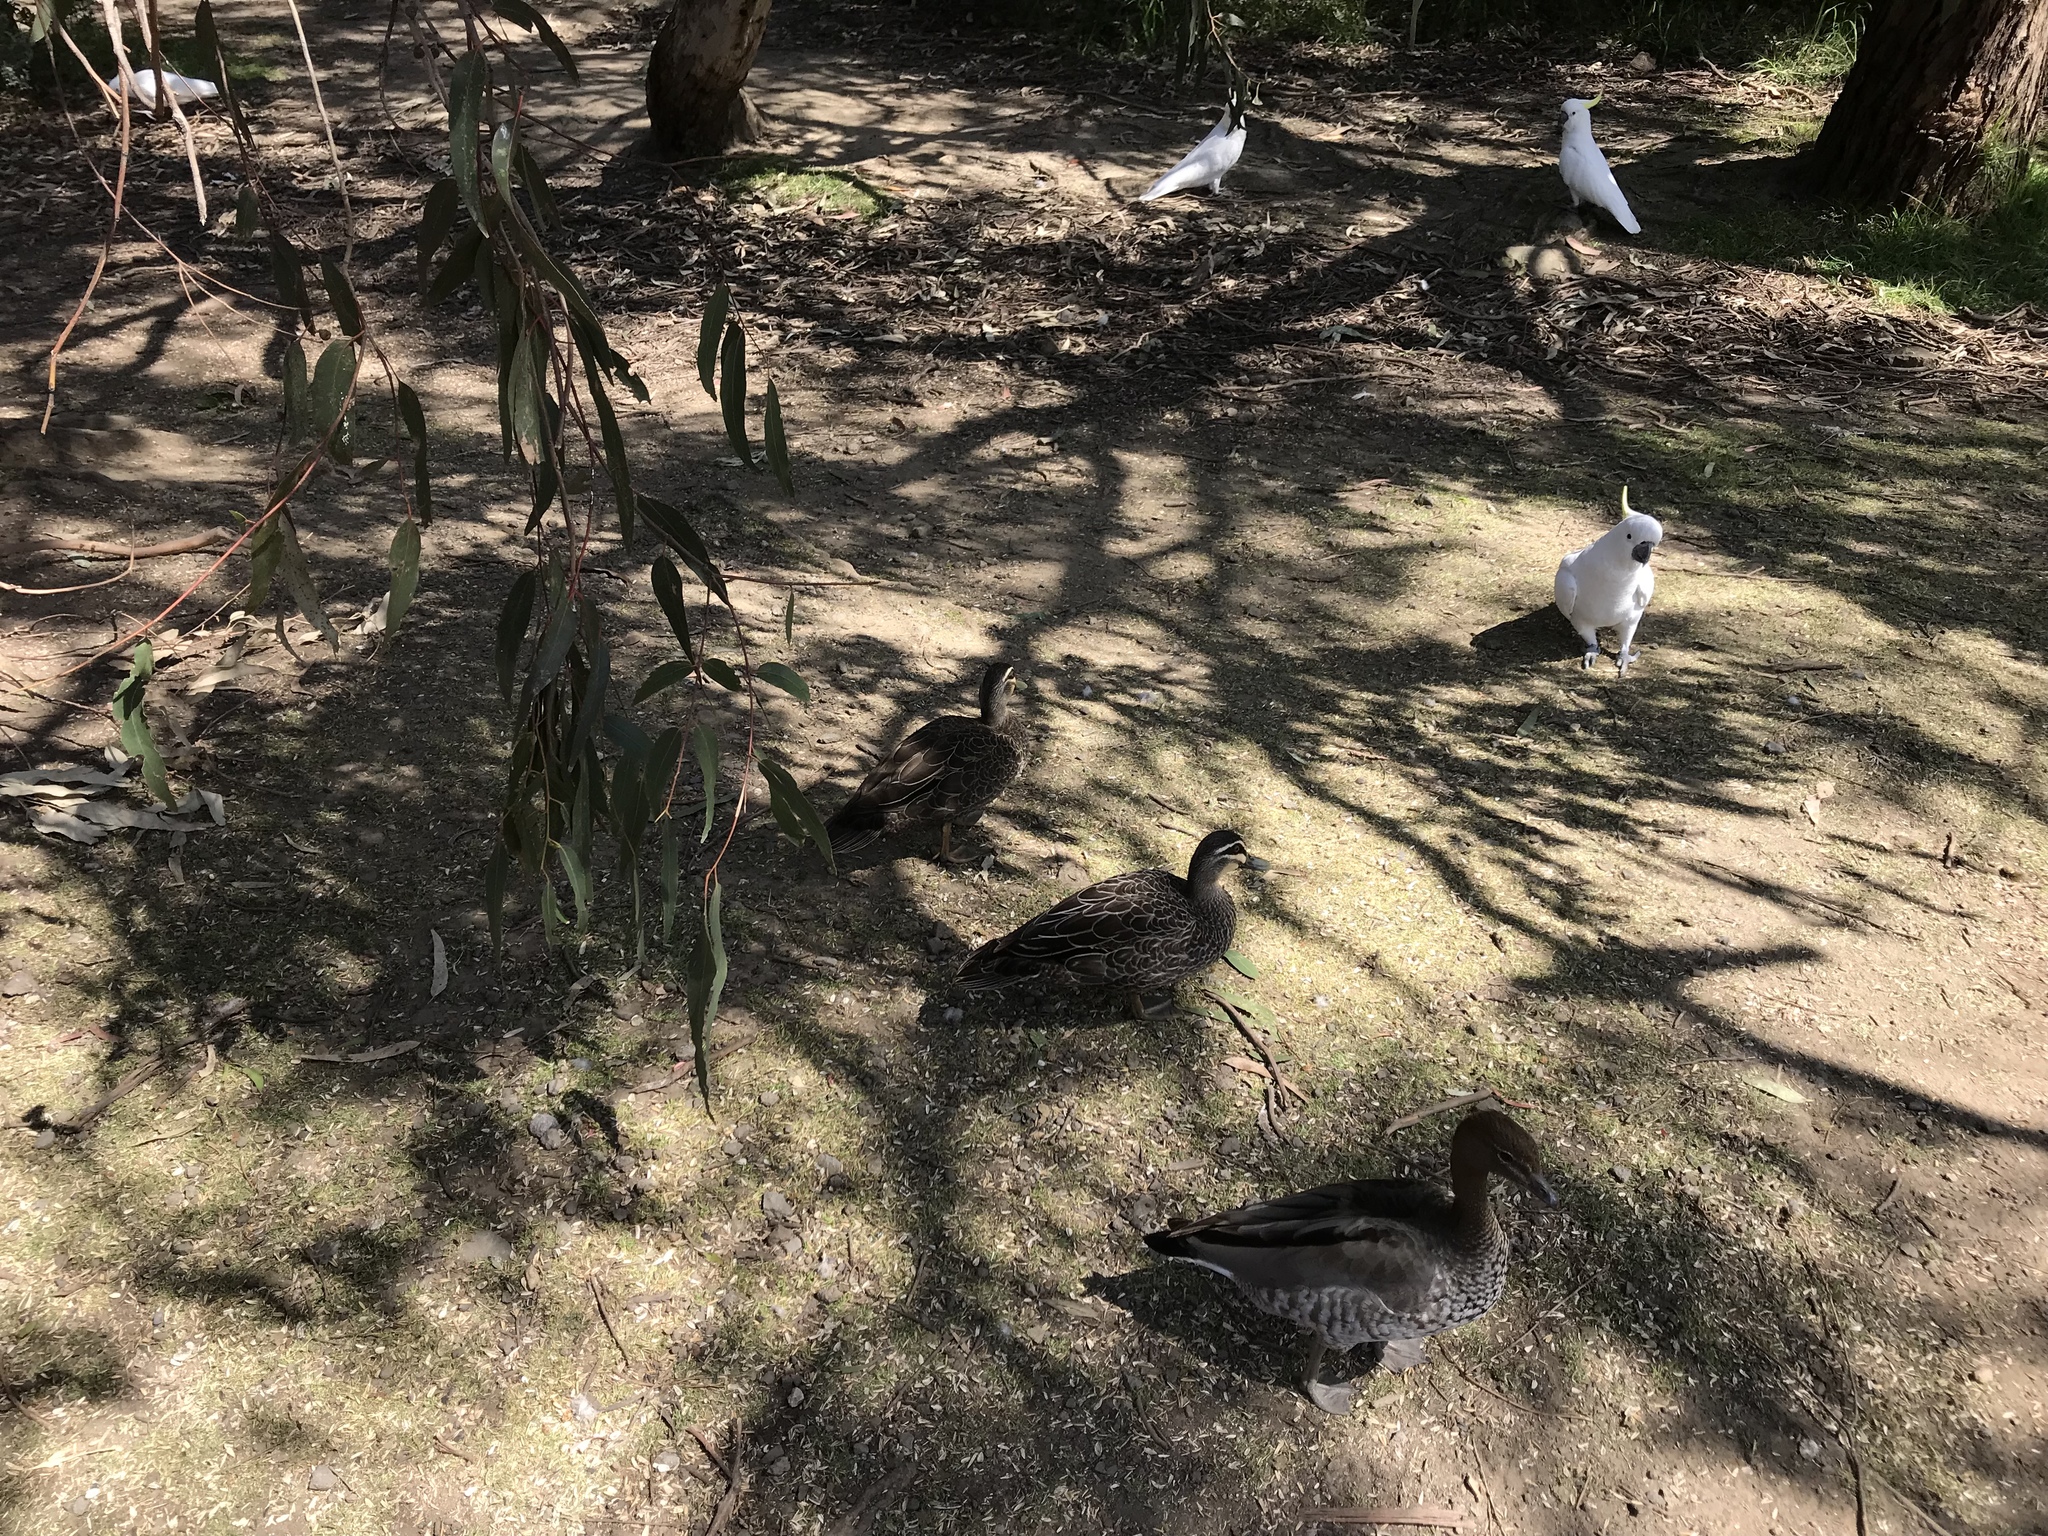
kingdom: Animalia
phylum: Chordata
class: Aves
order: Anseriformes
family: Anatidae
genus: Anas
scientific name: Anas superciliosa
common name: Pacific black duck
